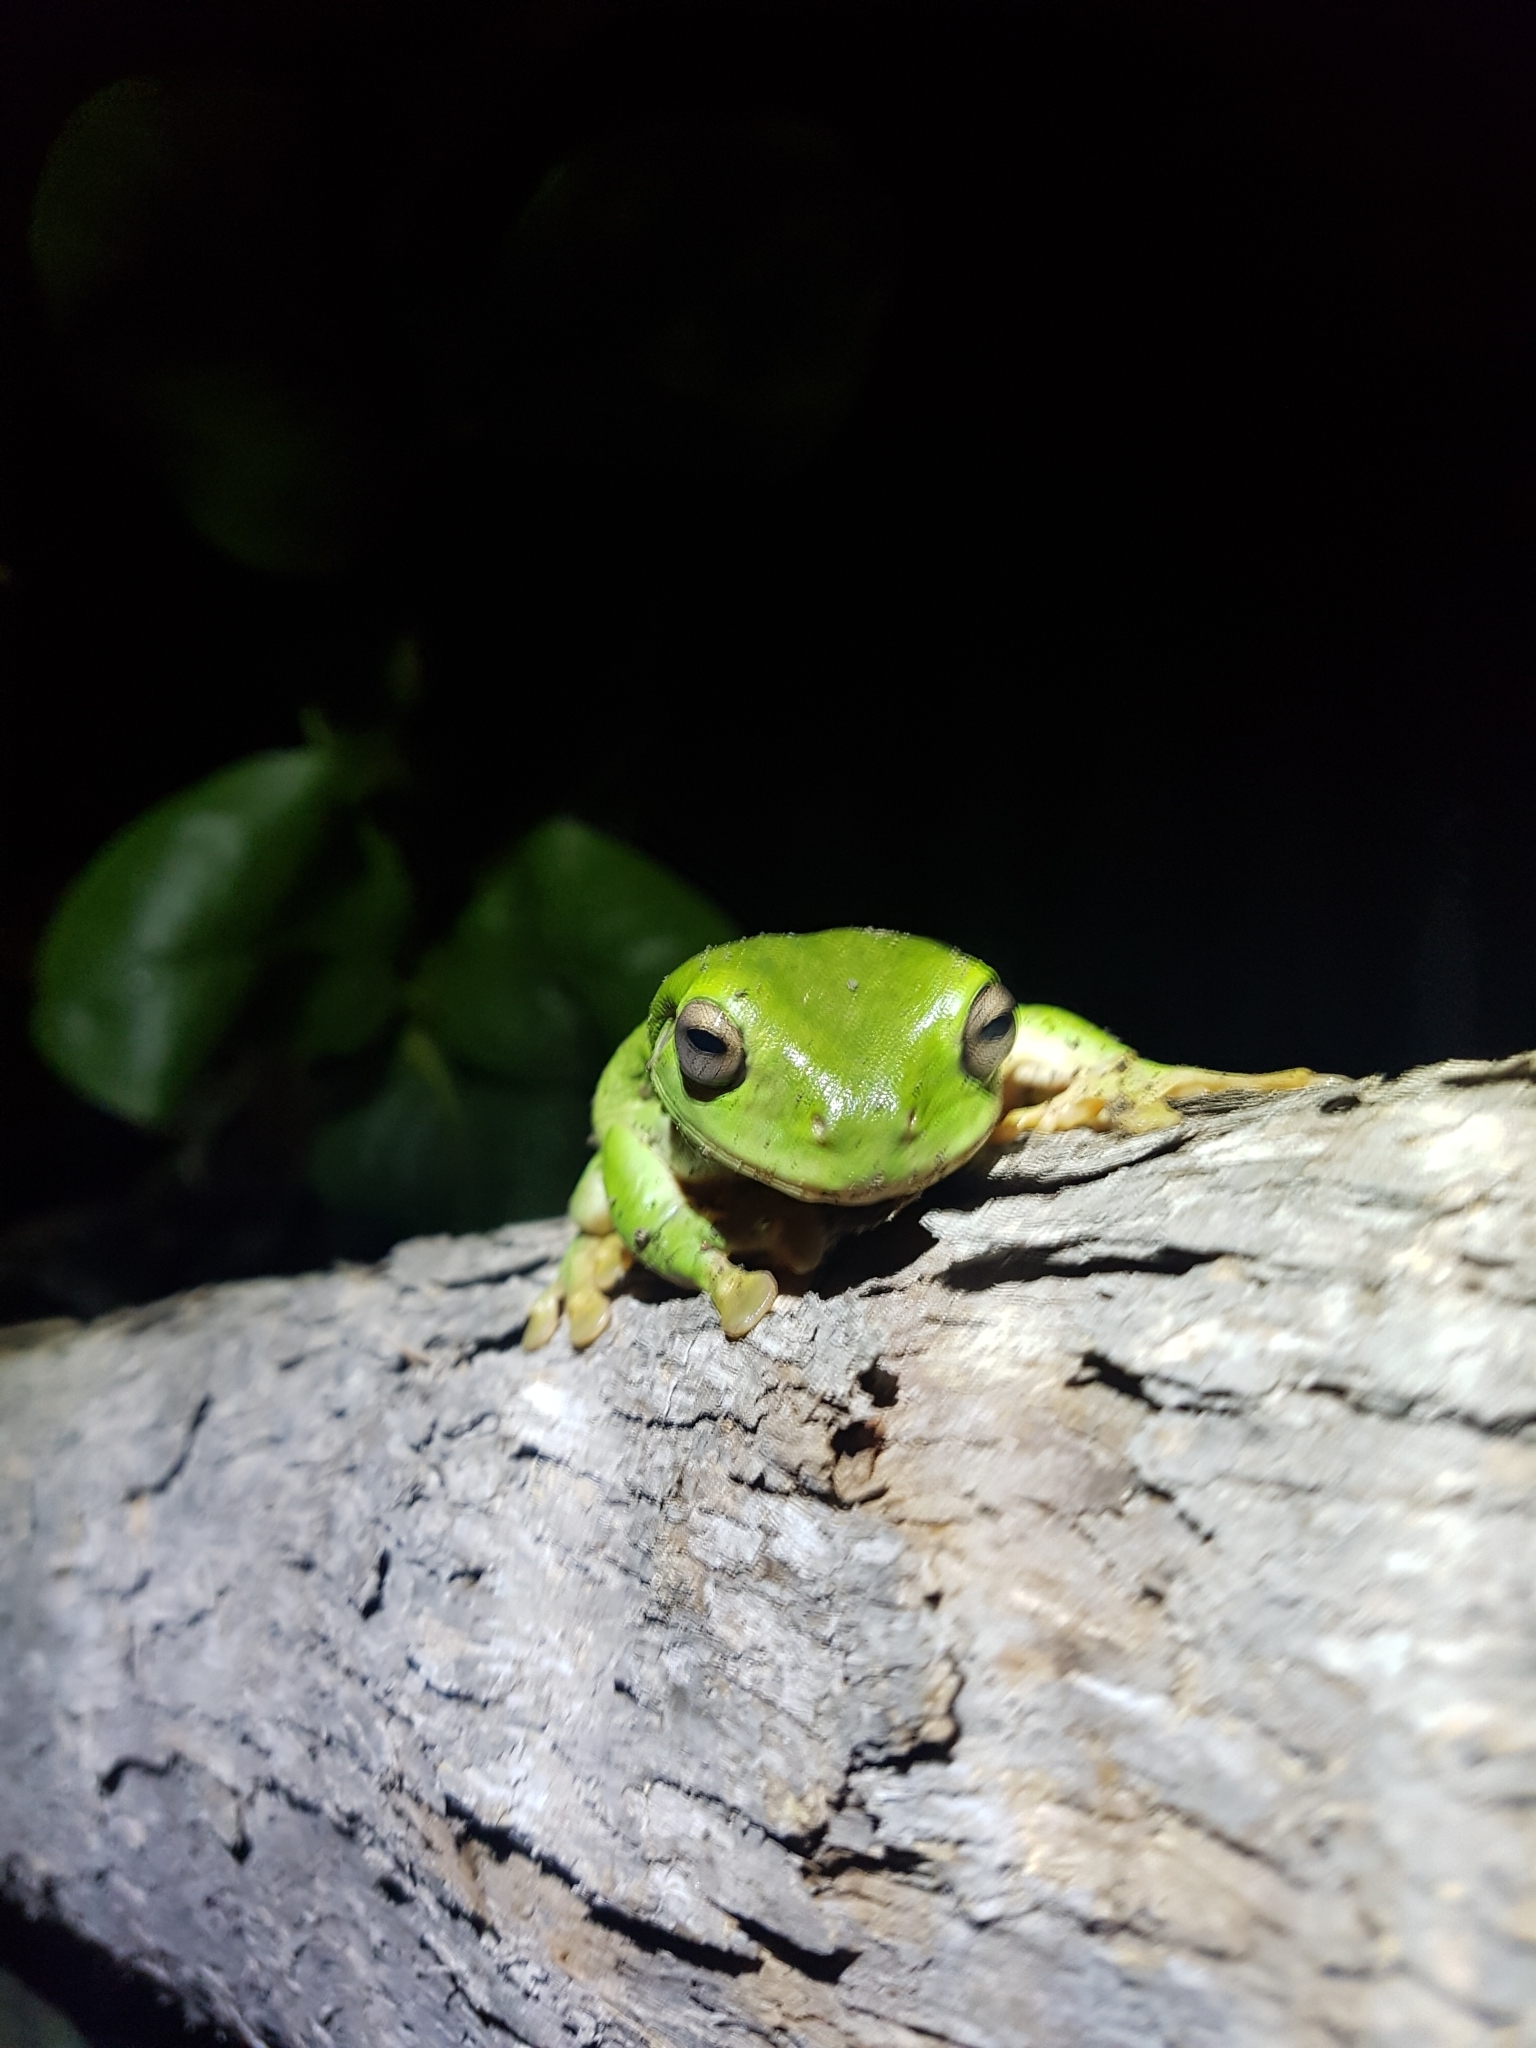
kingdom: Animalia
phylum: Chordata
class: Amphibia
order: Anura
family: Pelodryadidae
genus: Ranoidea
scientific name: Ranoidea caerulea
